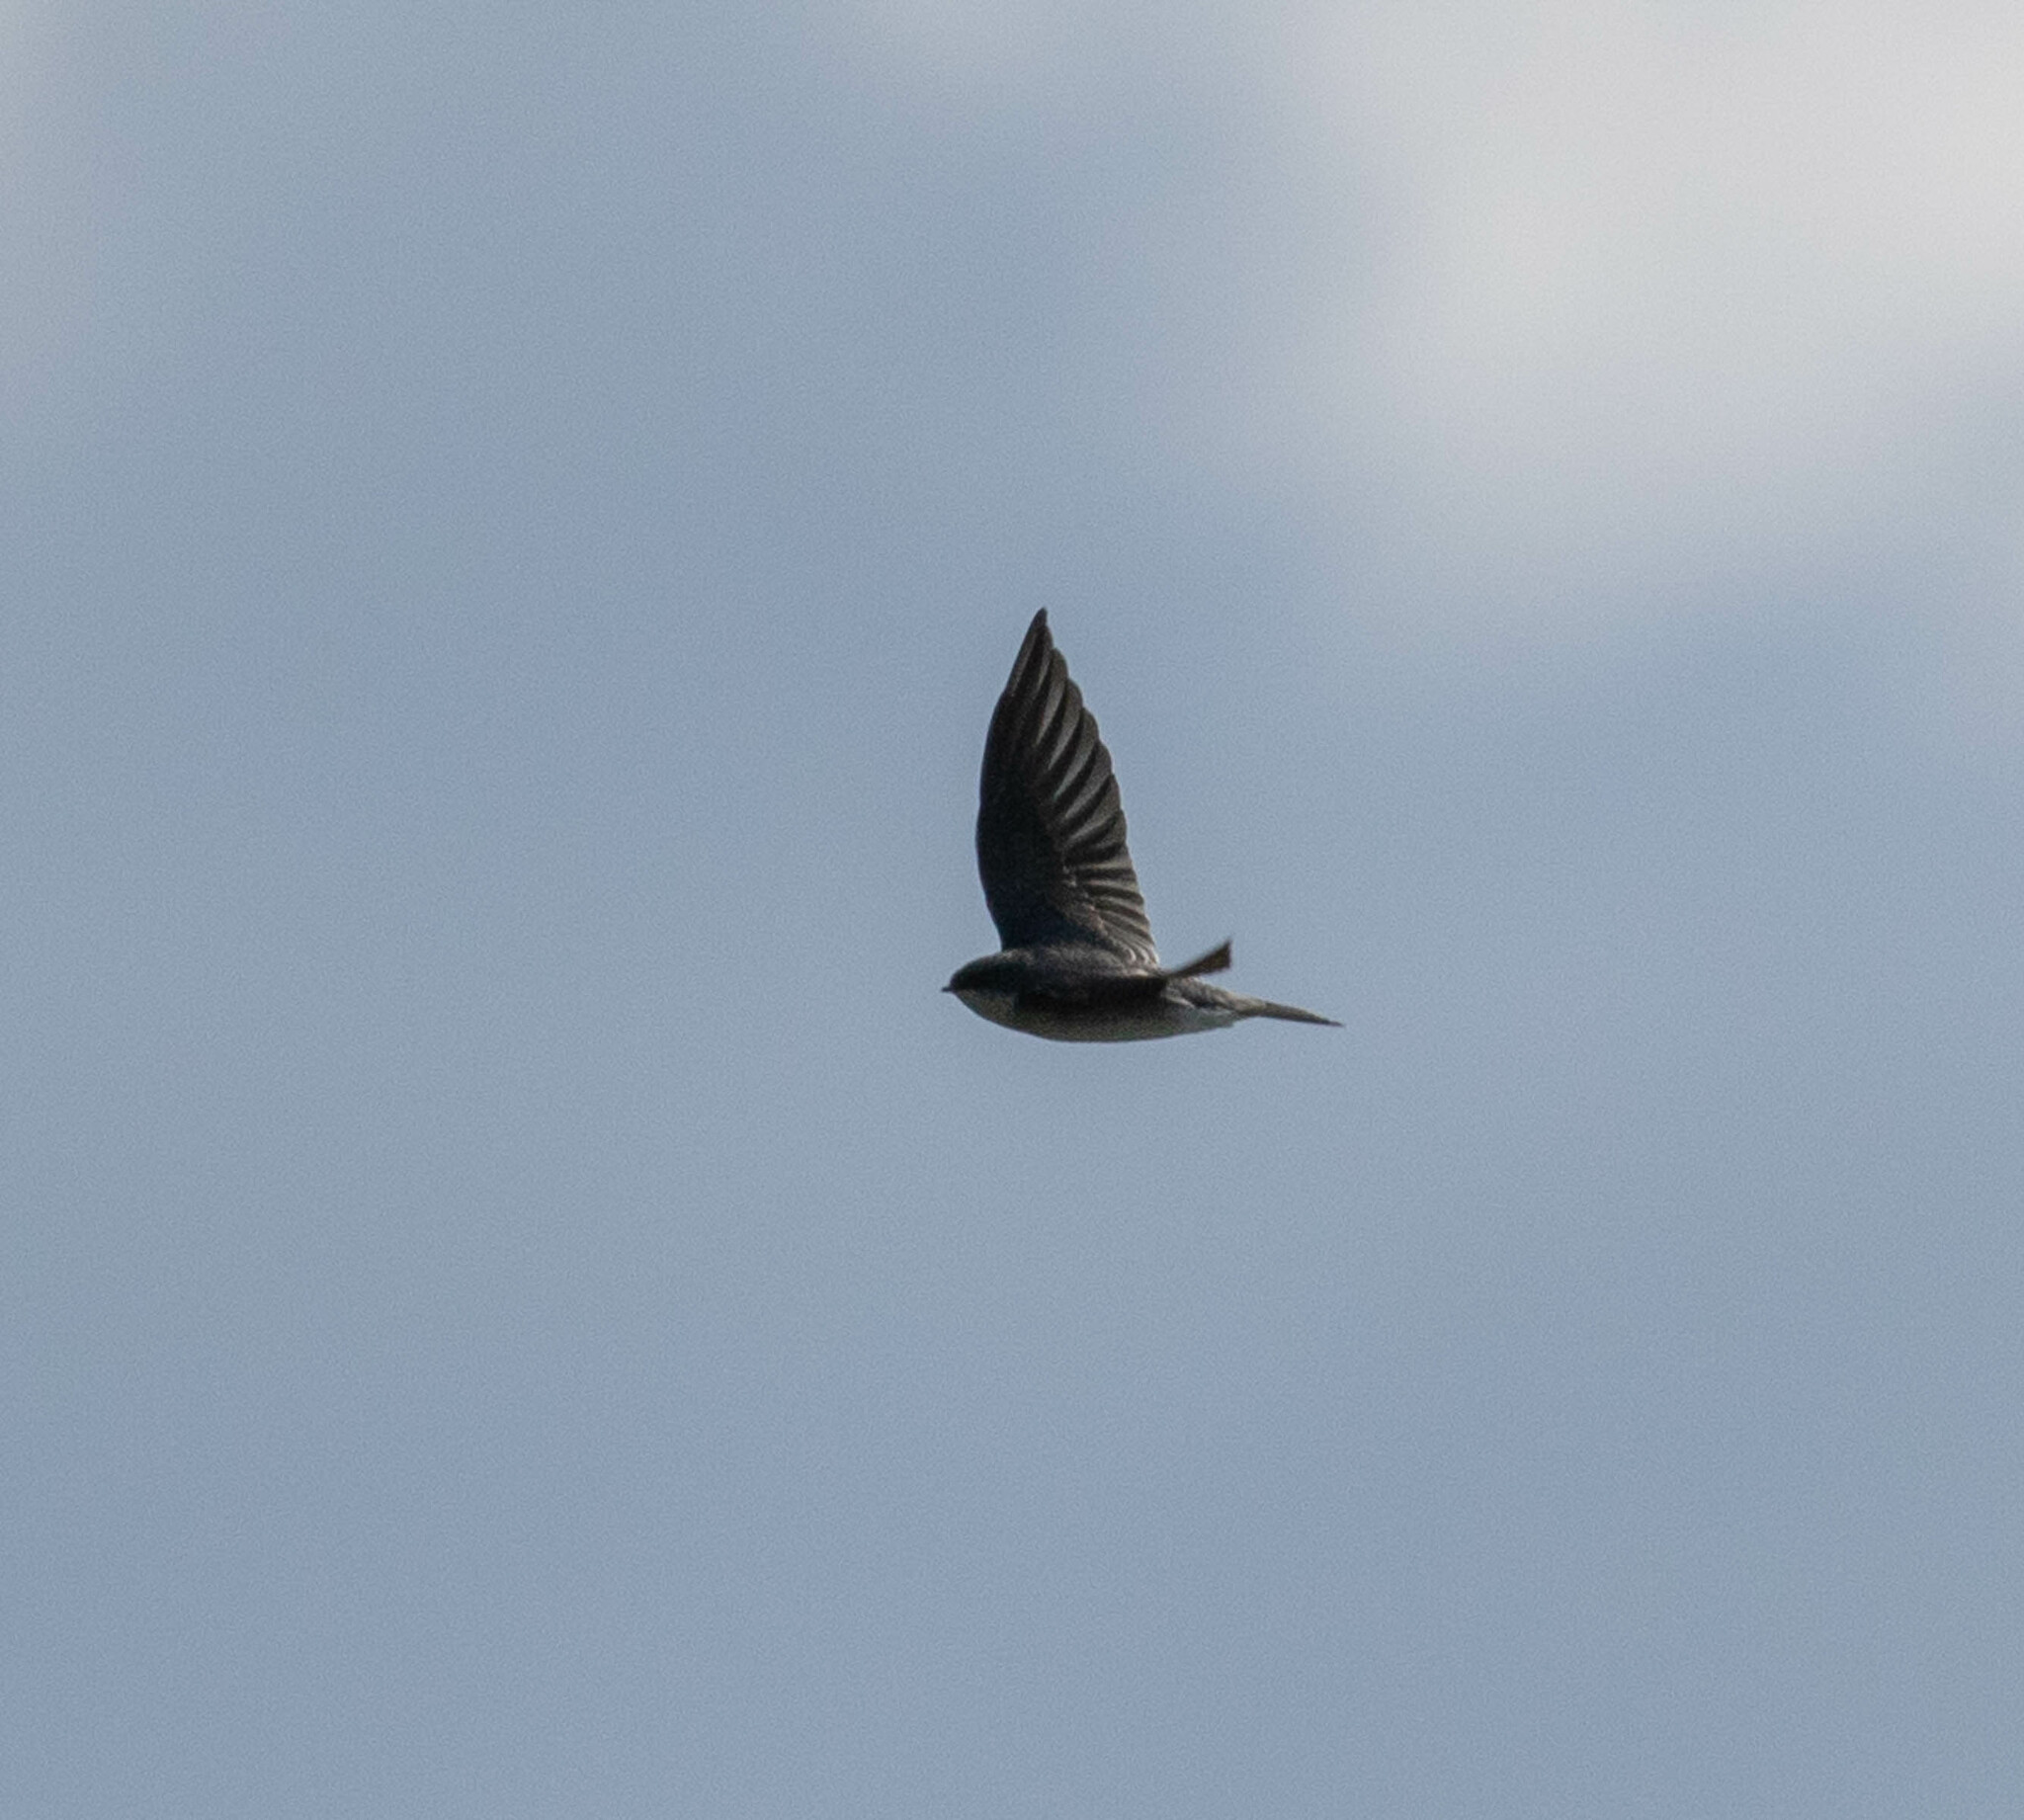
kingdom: Animalia
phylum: Chordata
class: Aves
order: Passeriformes
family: Hirundinidae
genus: Tachycineta
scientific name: Tachycineta bicolor
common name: Tree swallow
